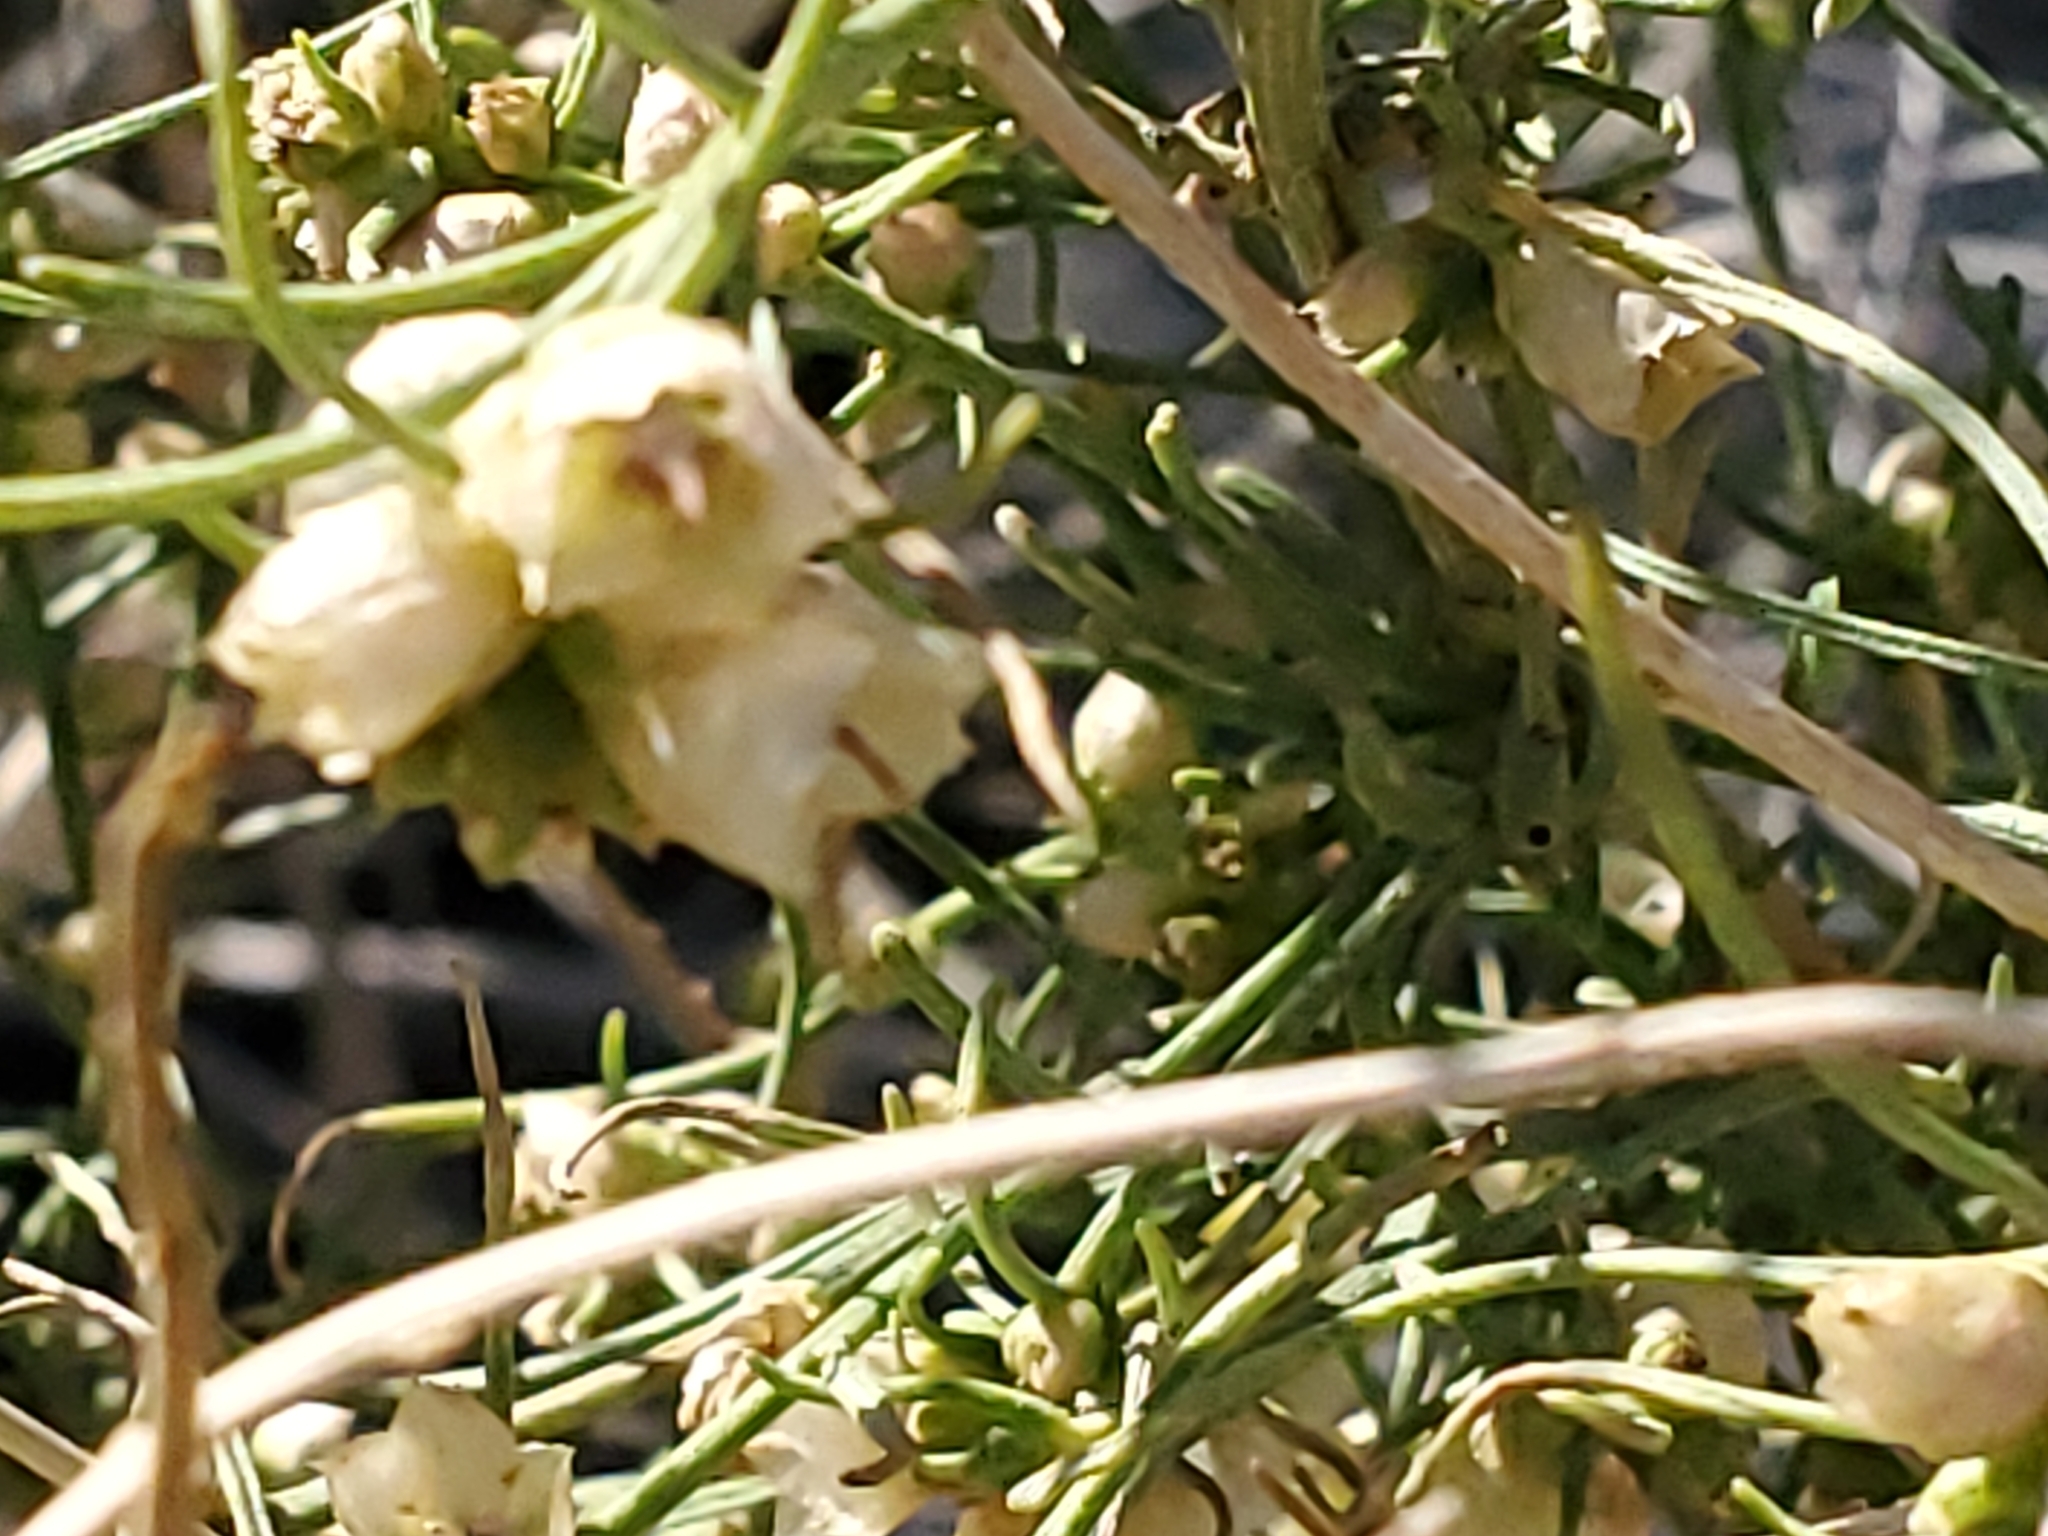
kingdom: Plantae
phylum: Tracheophyta
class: Magnoliopsida
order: Asterales
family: Asteraceae
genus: Ambrosia
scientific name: Ambrosia salsola
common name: Burrobrush
